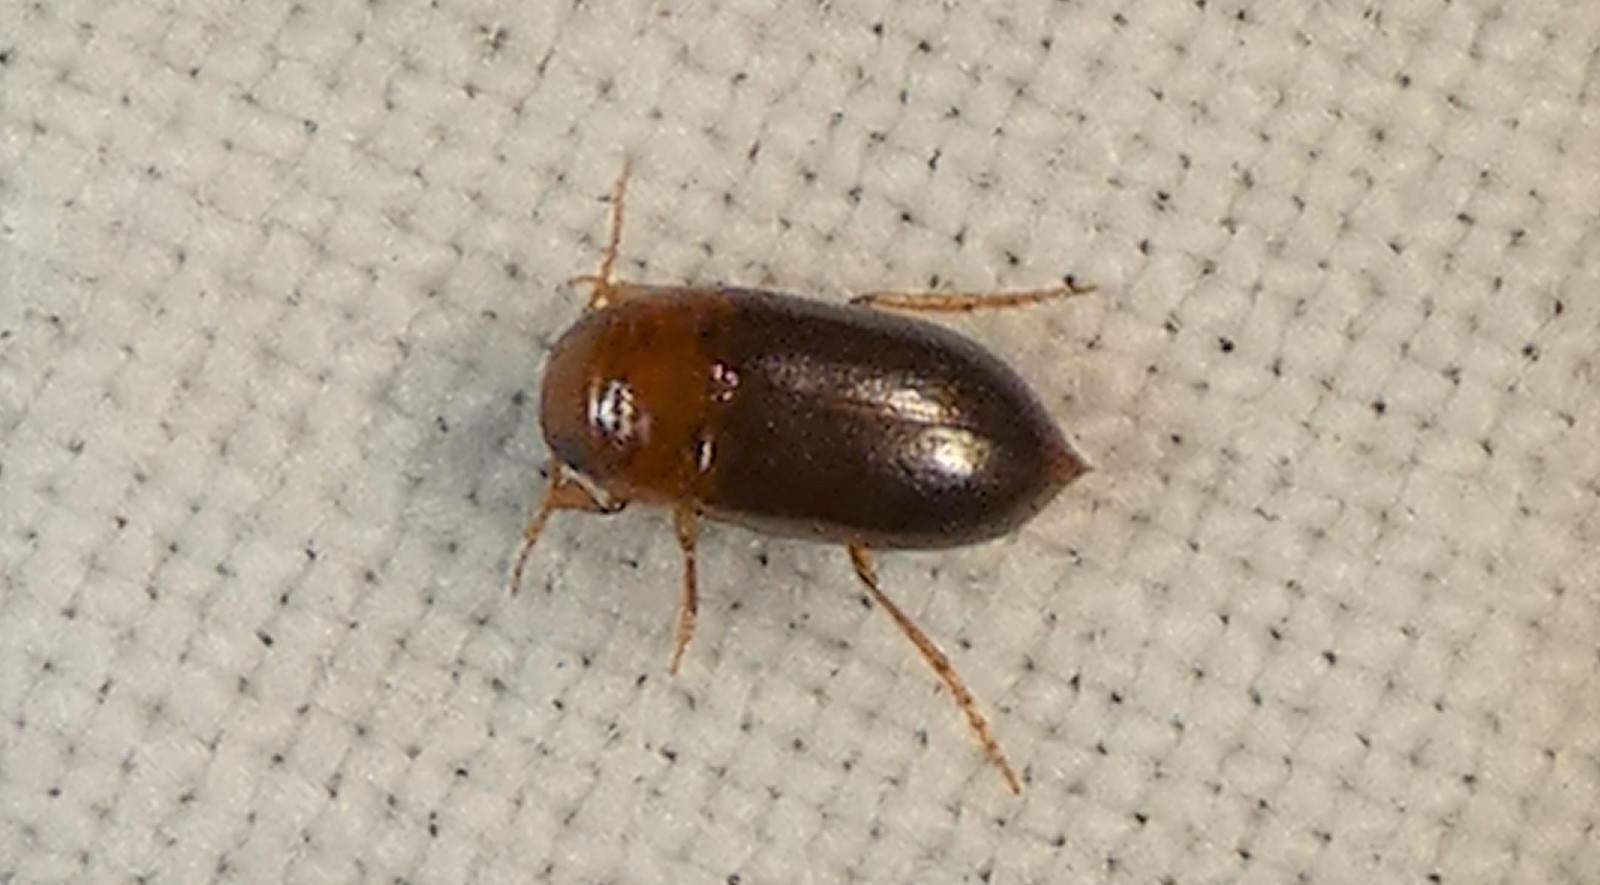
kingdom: Animalia
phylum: Arthropoda
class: Insecta
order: Coleoptera
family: Dytiscidae
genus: Celina
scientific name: Celina
